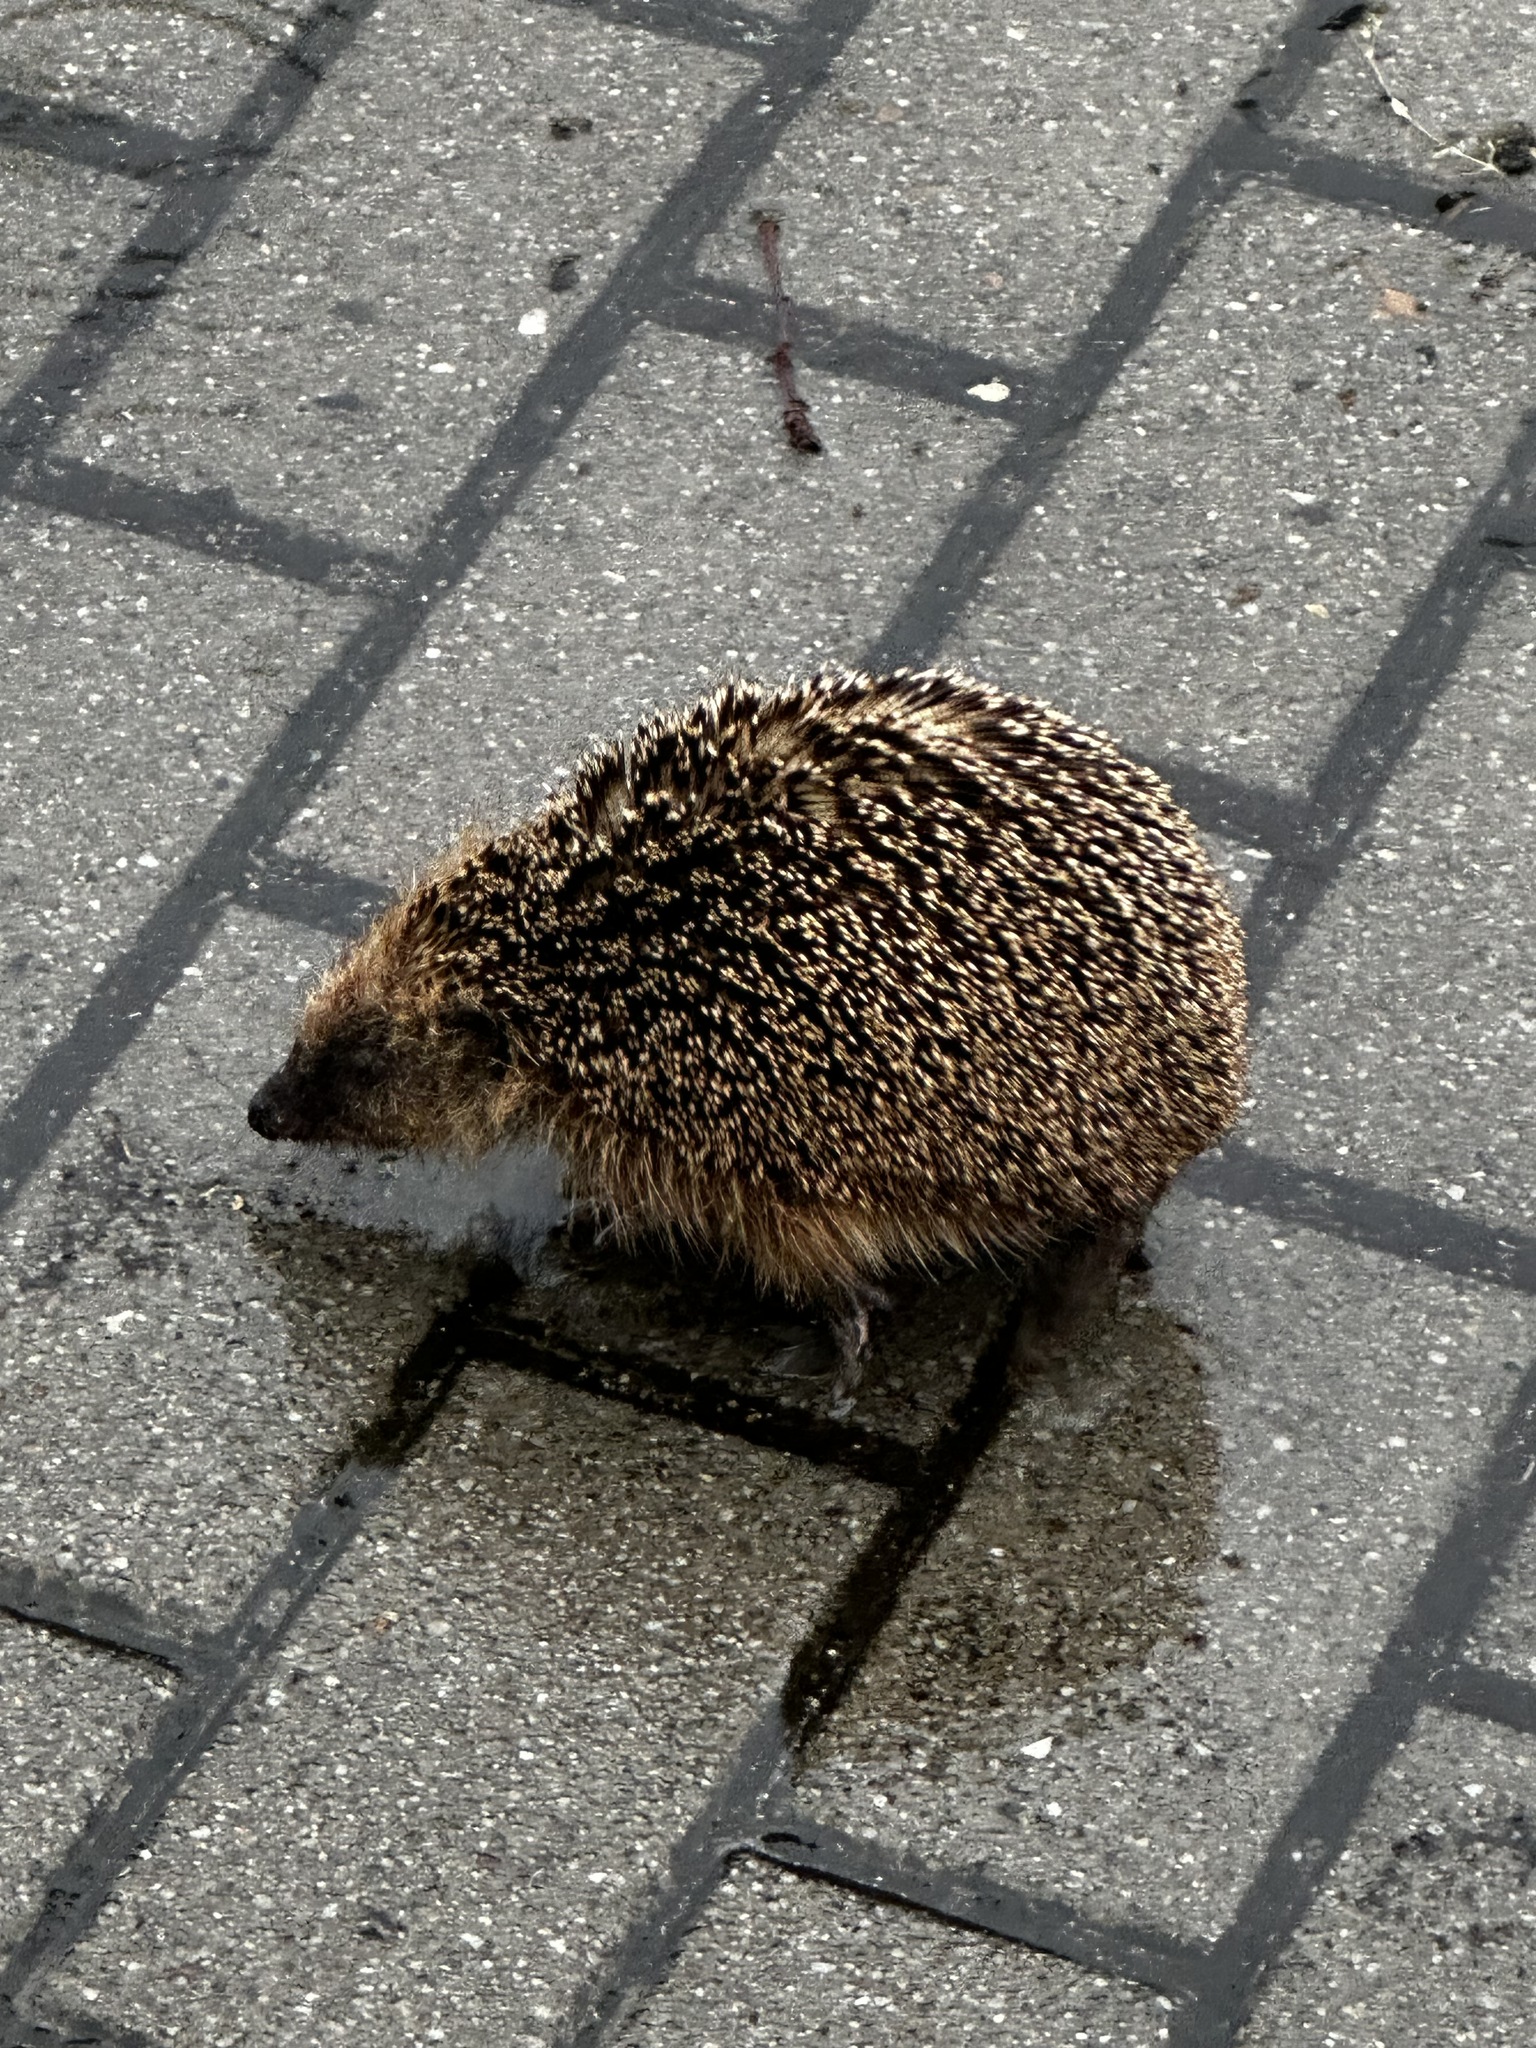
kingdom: Animalia
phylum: Chordata
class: Mammalia
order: Erinaceomorpha
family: Erinaceidae
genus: Erinaceus
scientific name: Erinaceus europaeus
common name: West european hedgehog
